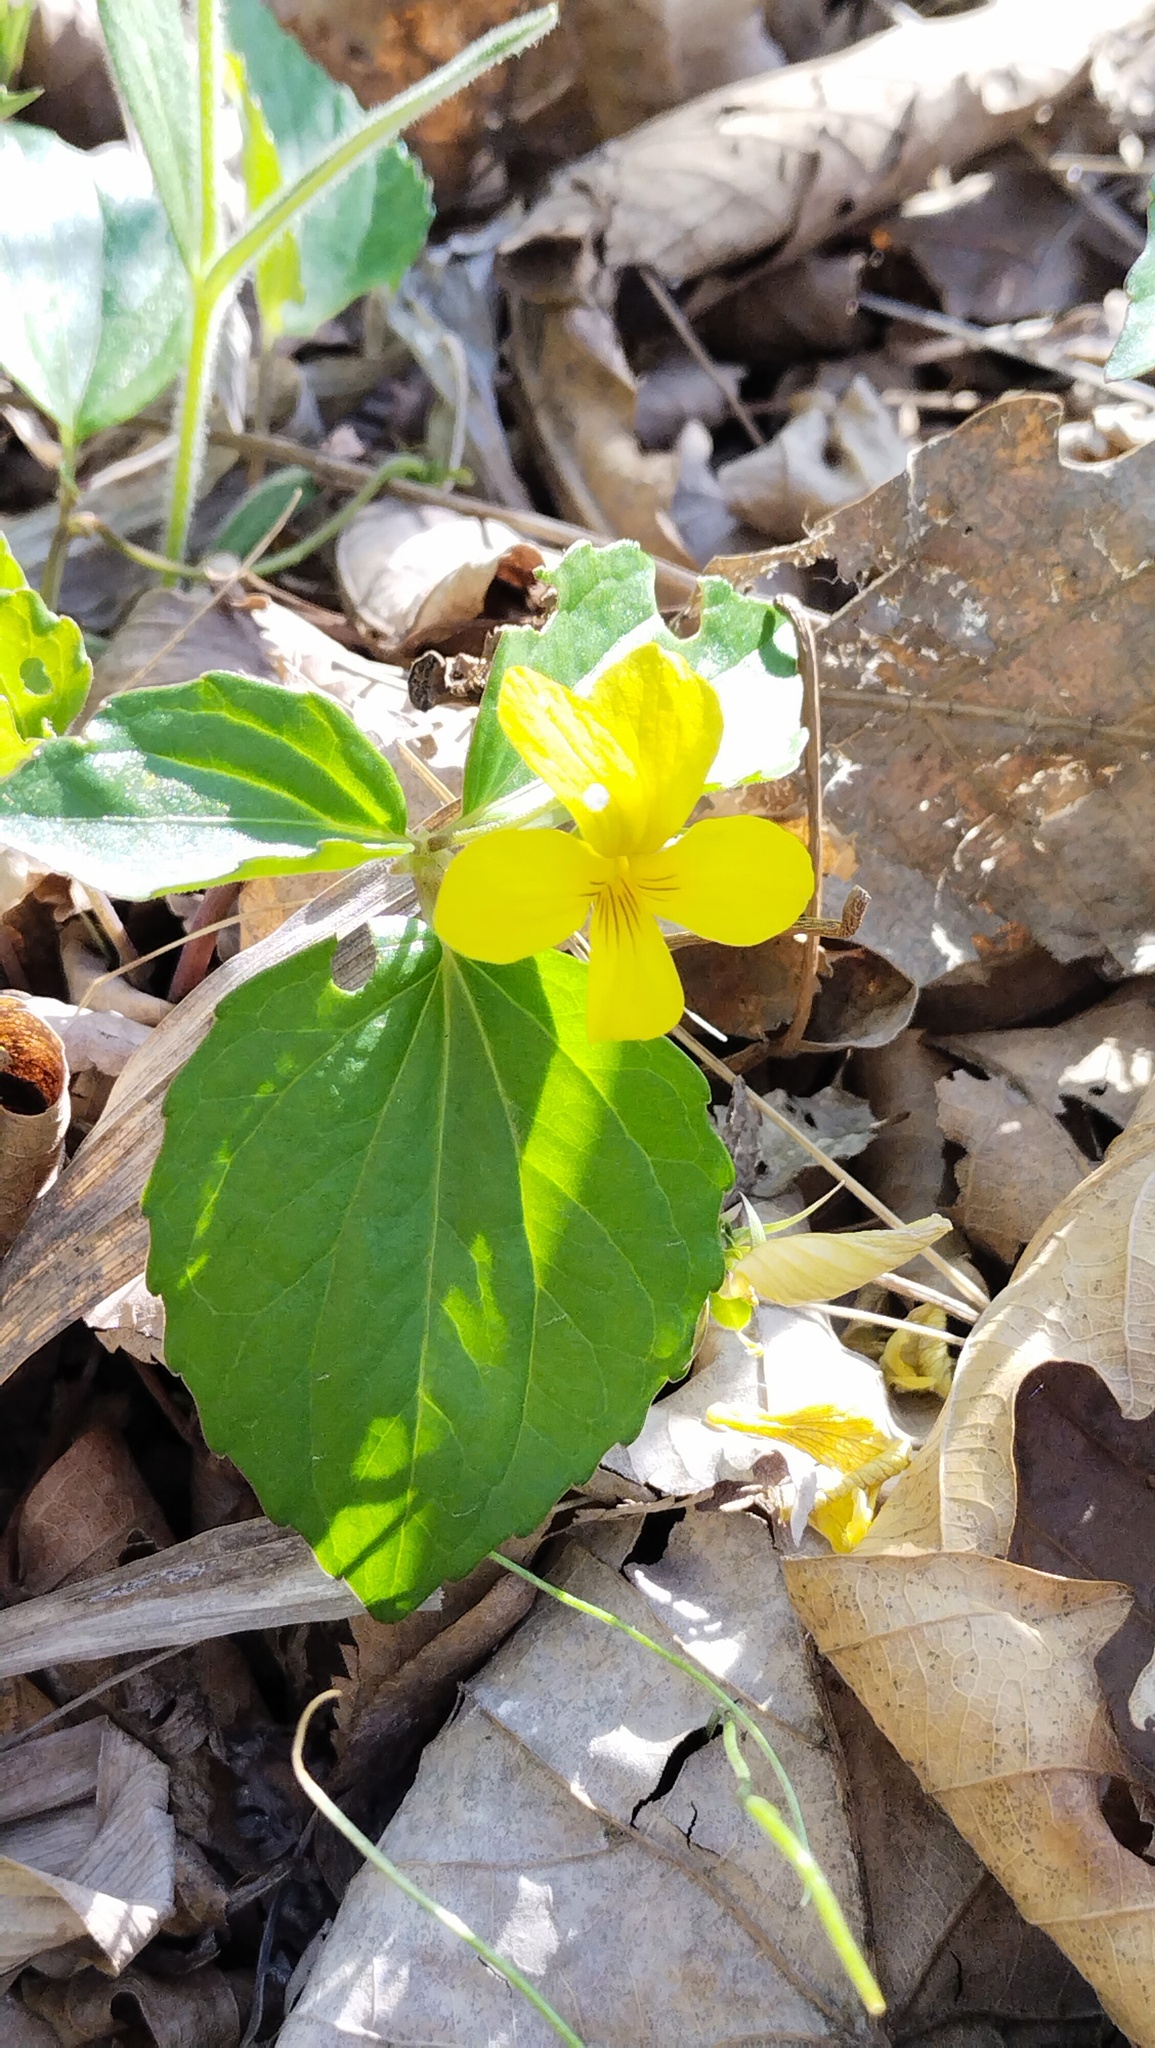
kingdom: Plantae
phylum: Tracheophyta
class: Magnoliopsida
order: Malpighiales
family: Violaceae
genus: Viola
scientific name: Viola orientalis
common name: Golden violet
